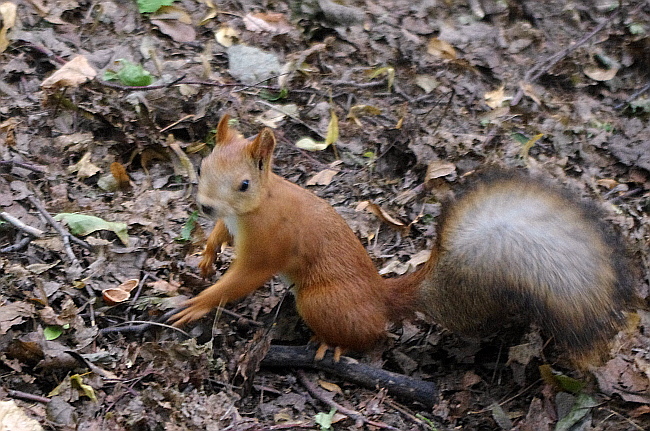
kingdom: Animalia
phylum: Chordata
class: Mammalia
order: Rodentia
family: Sciuridae
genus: Sciurus
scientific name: Sciurus vulgaris
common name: Eurasian red squirrel
